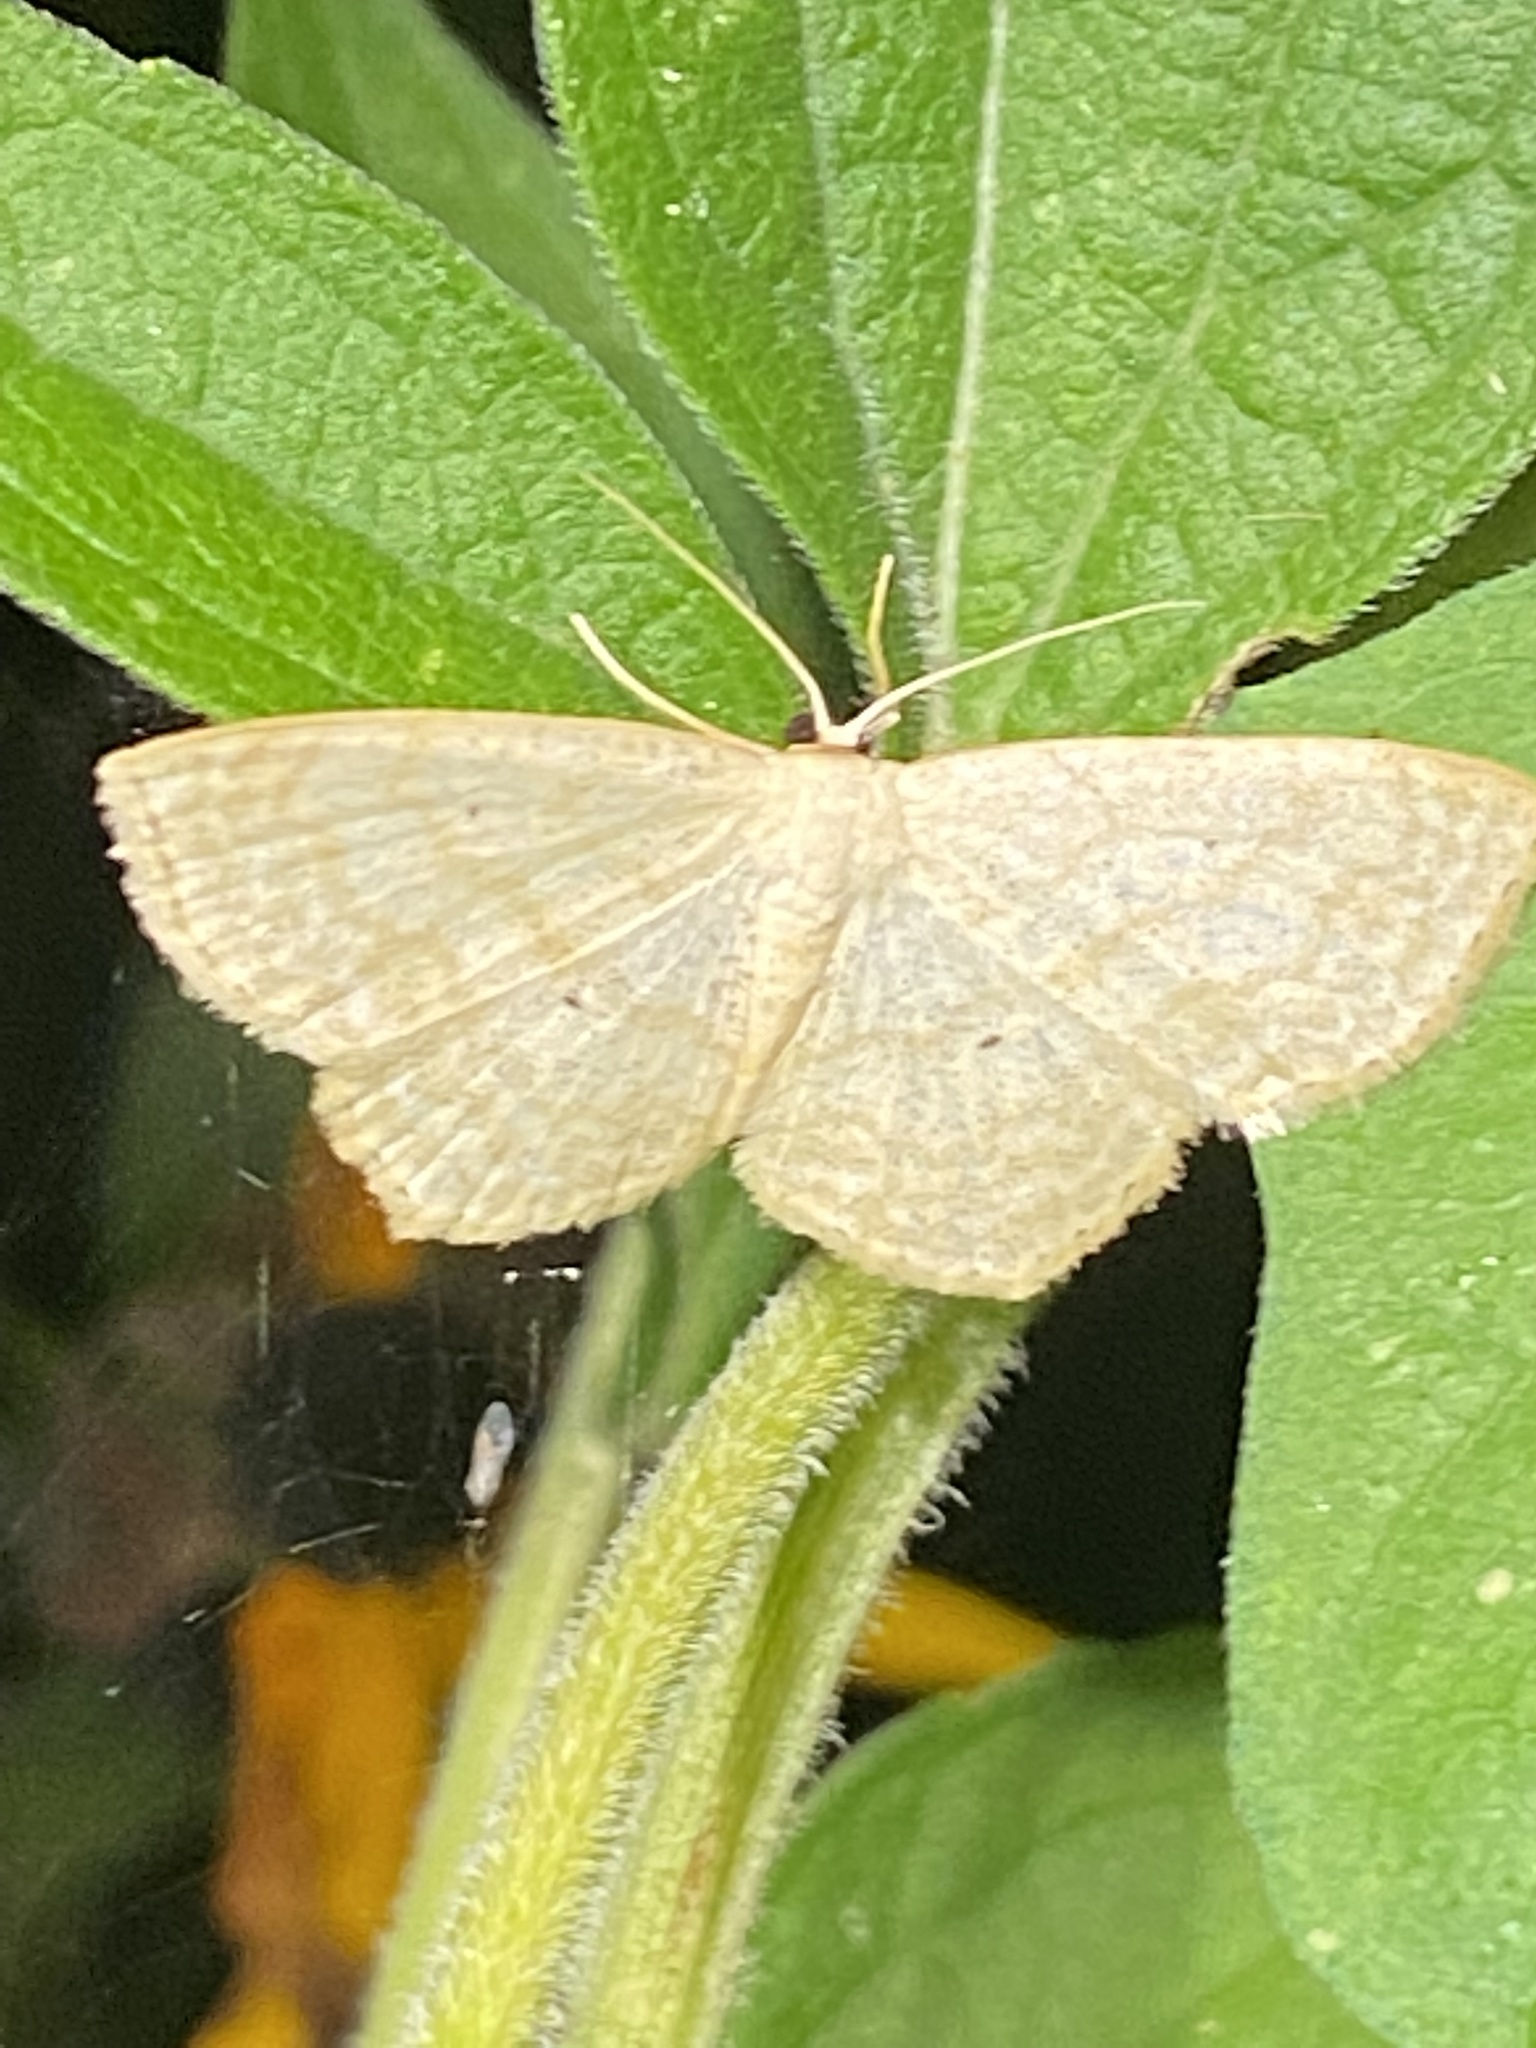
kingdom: Animalia
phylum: Arthropoda
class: Insecta
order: Lepidoptera
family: Geometridae
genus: Scopula
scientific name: Scopula limboundata
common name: Large lace border
